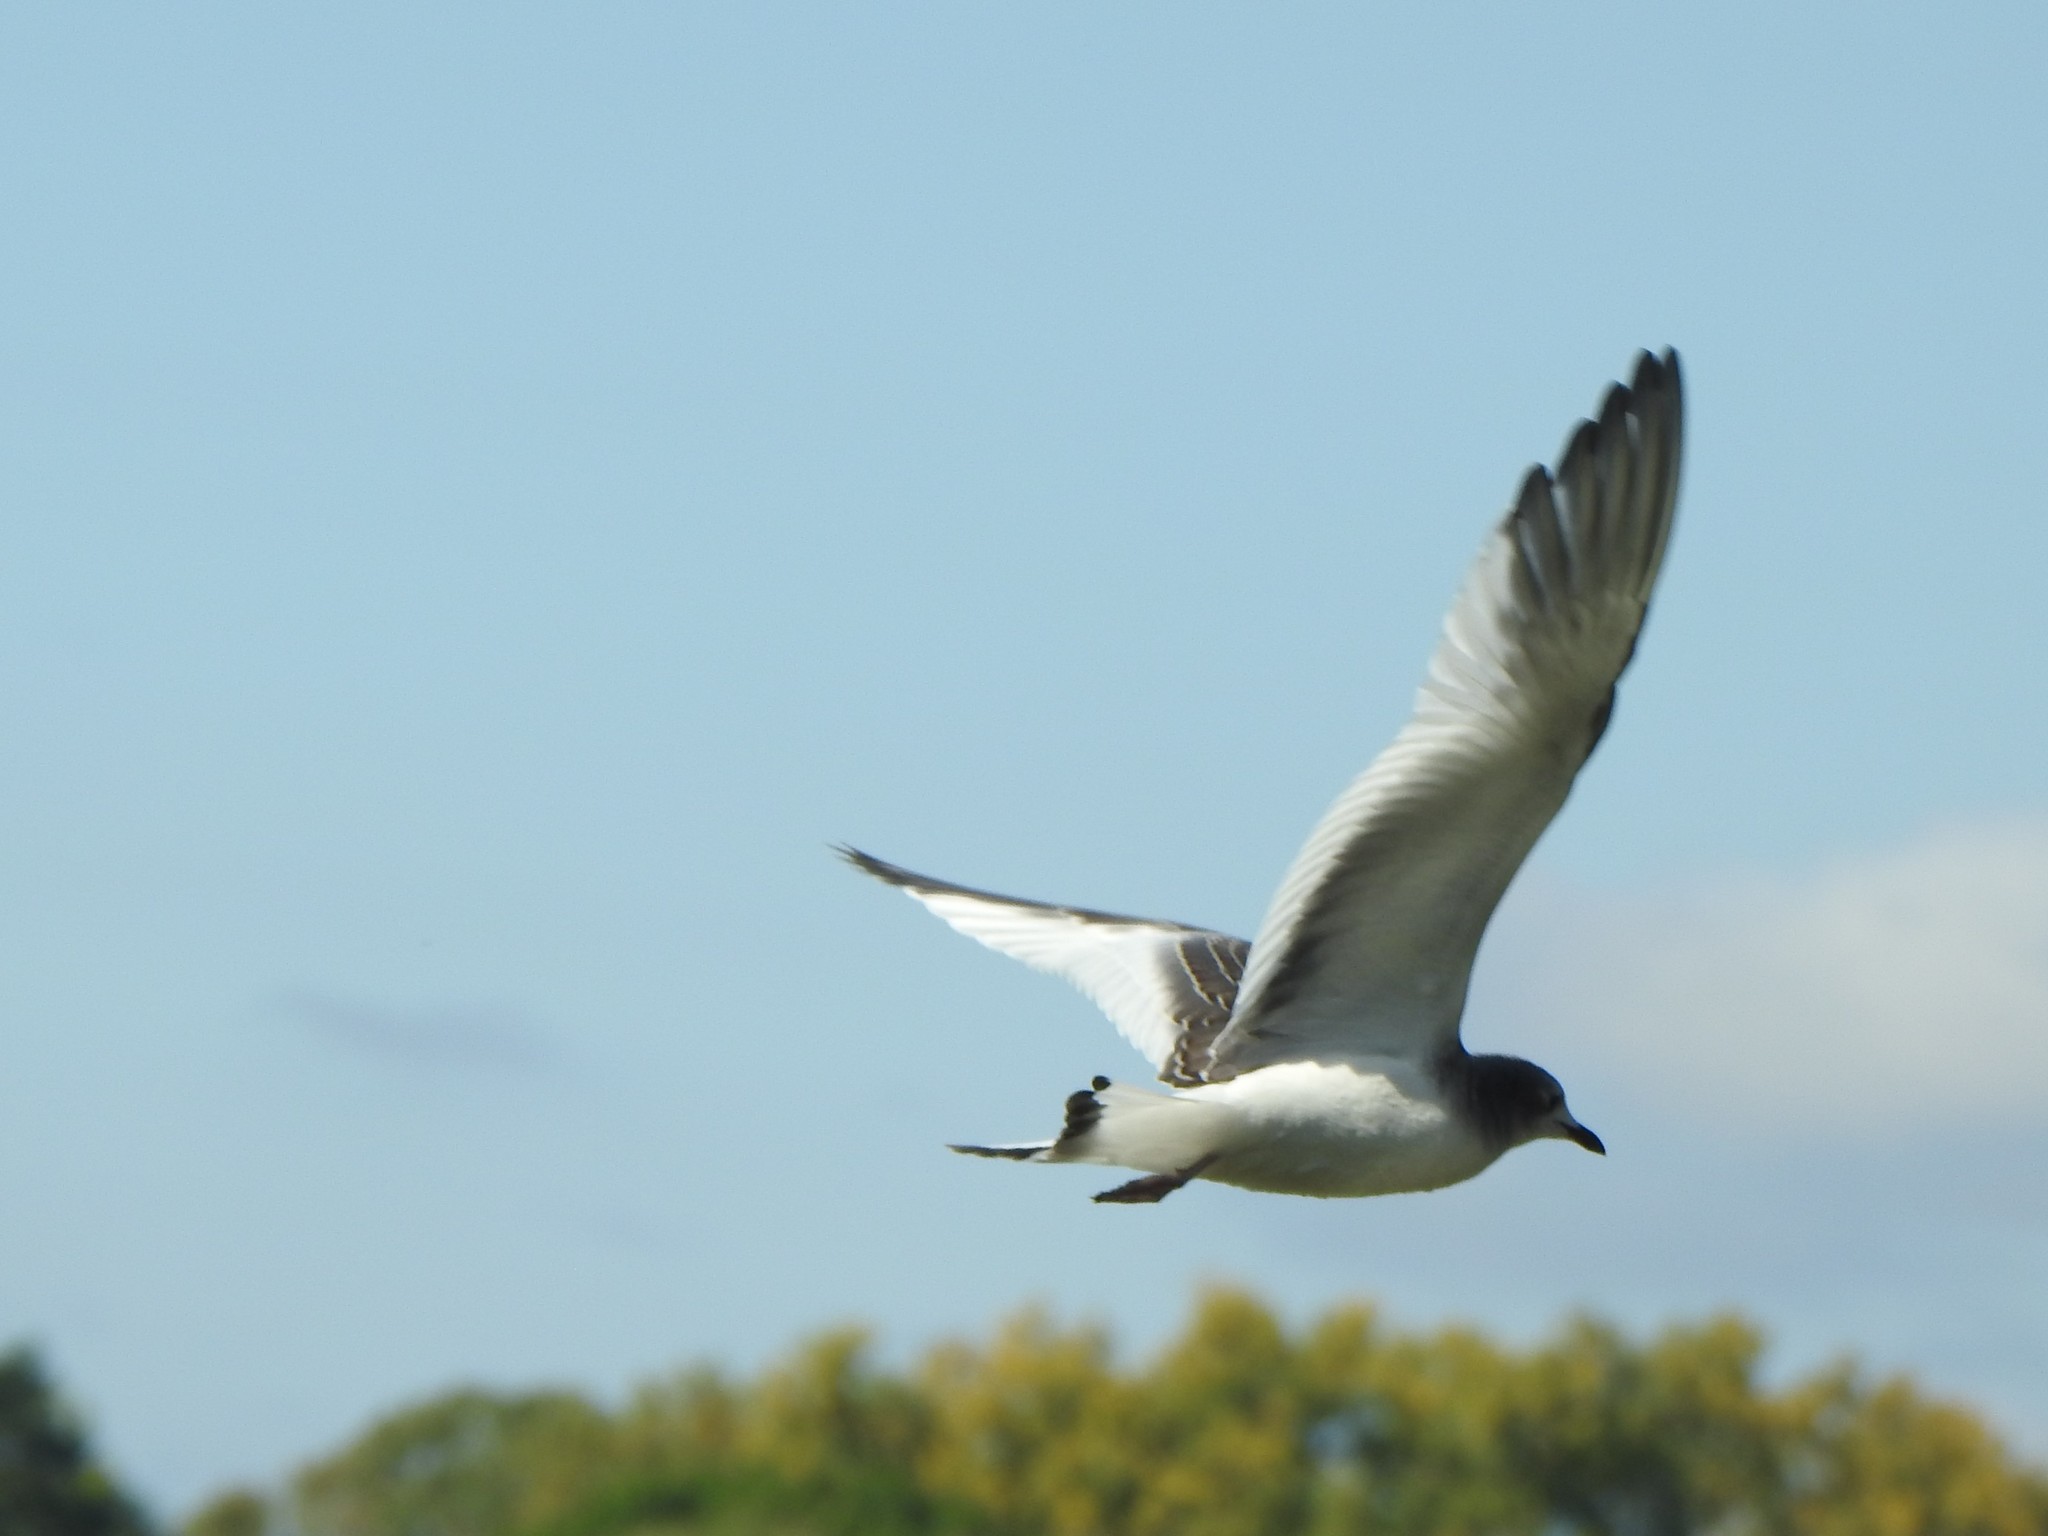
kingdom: Animalia
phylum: Chordata
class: Aves
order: Charadriiformes
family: Laridae
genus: Xema
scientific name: Xema sabini
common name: Sabine's gull
